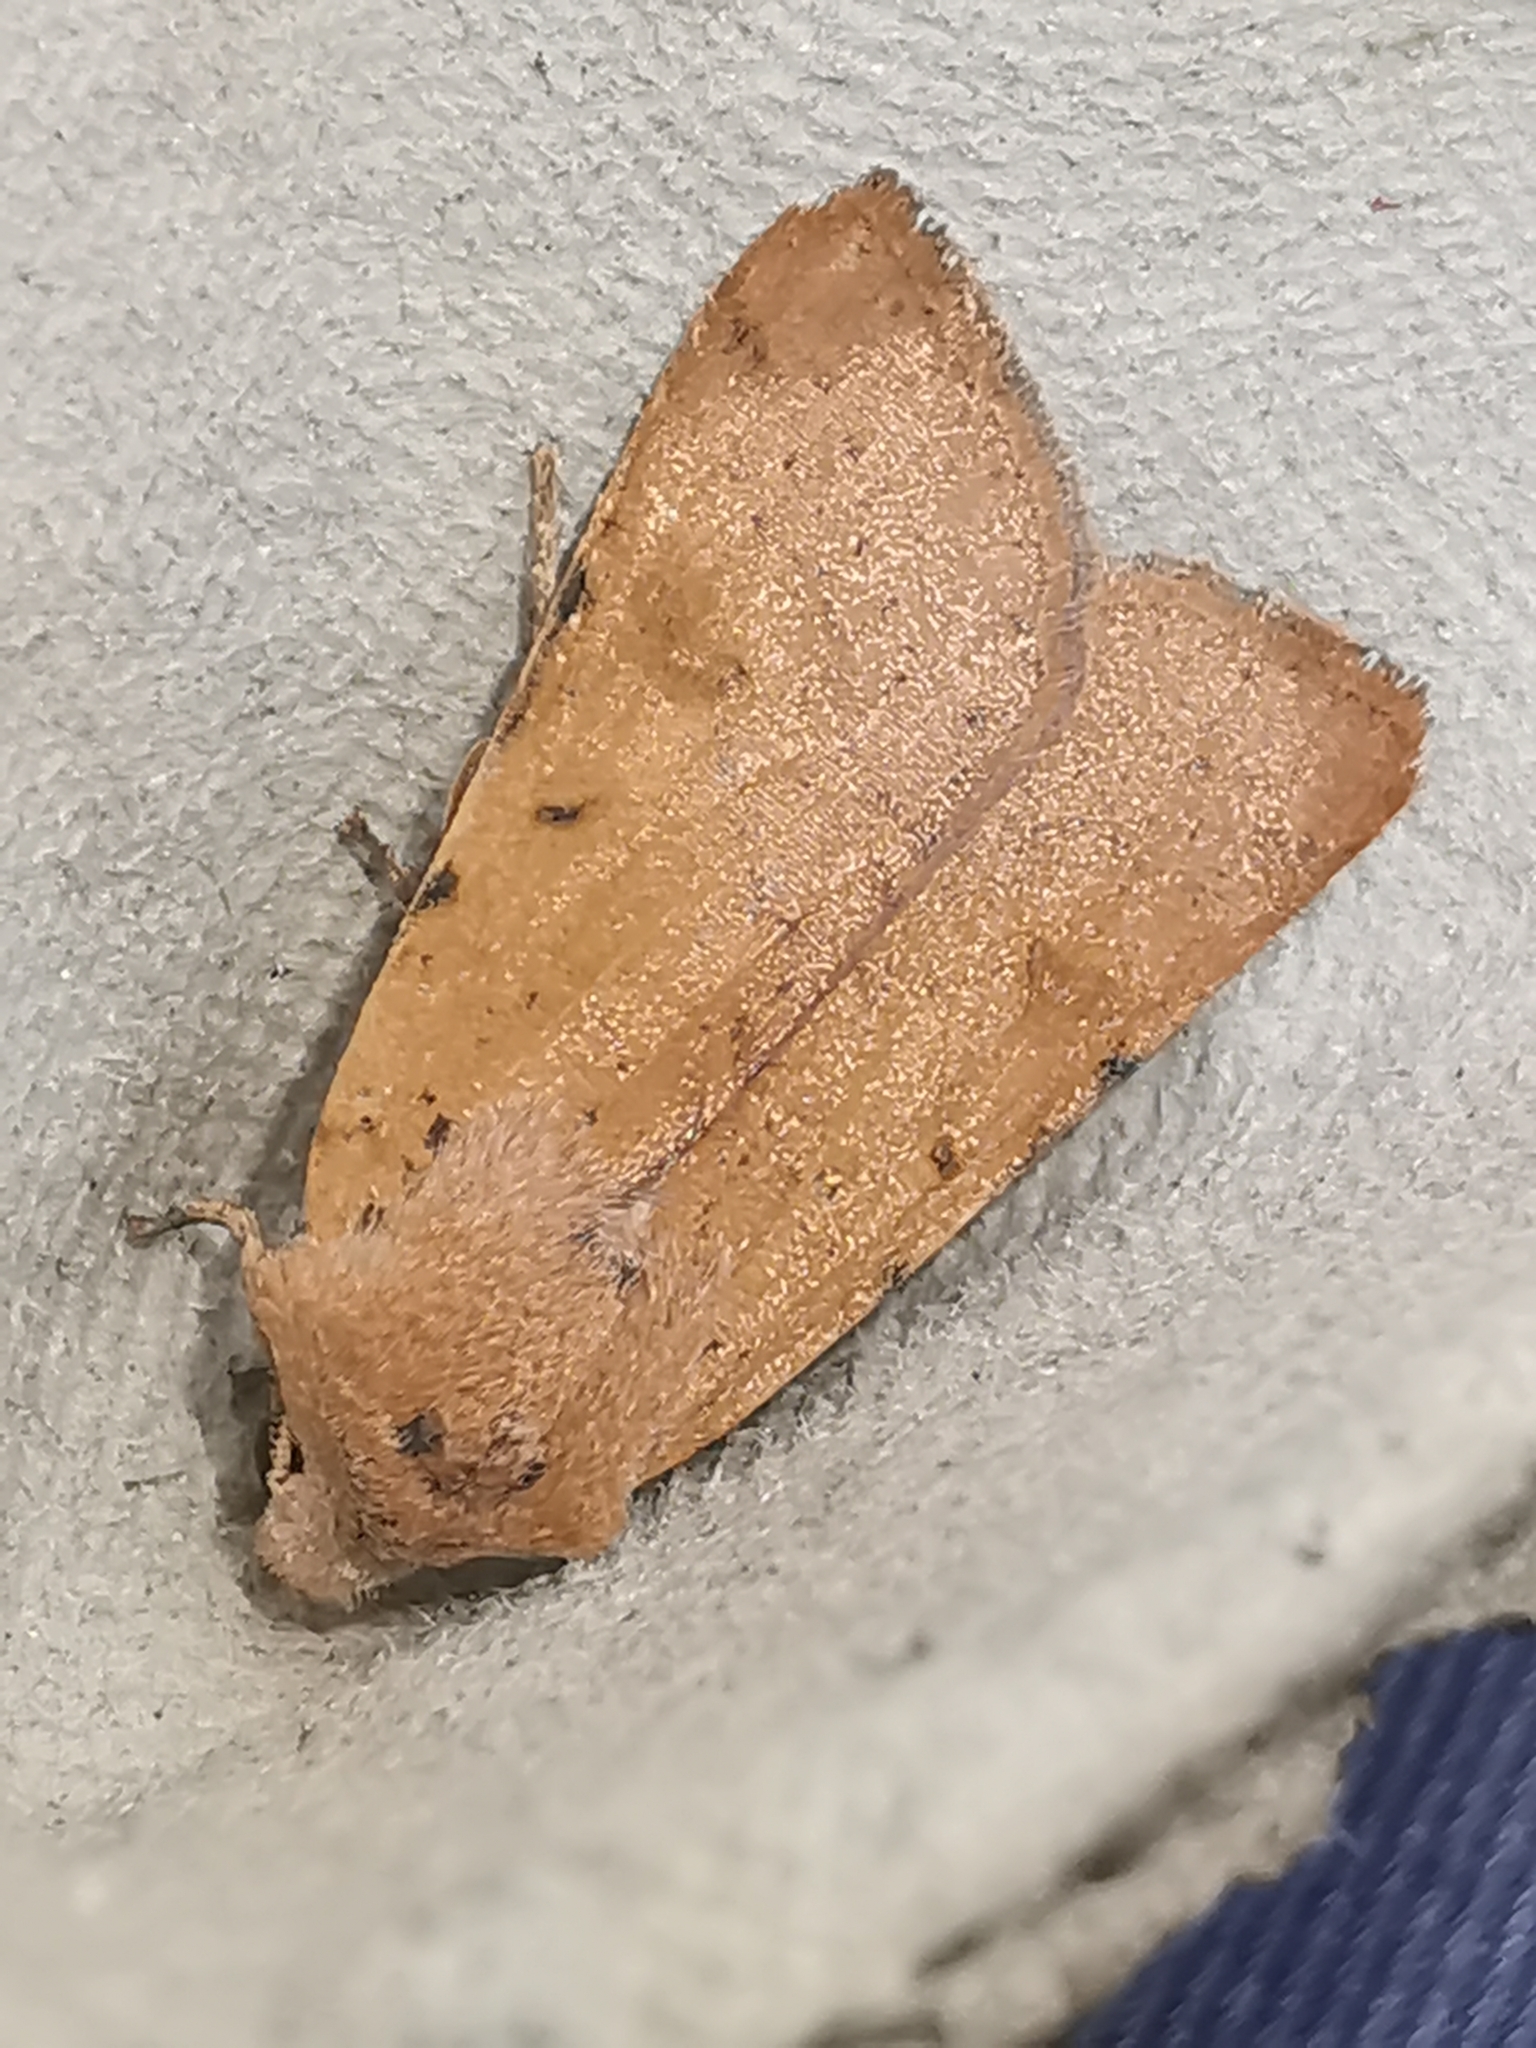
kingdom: Animalia
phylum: Arthropoda
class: Insecta
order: Lepidoptera
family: Noctuidae
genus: Agrochola
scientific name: Agrochola lychnidis
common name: Beaded chestnut
